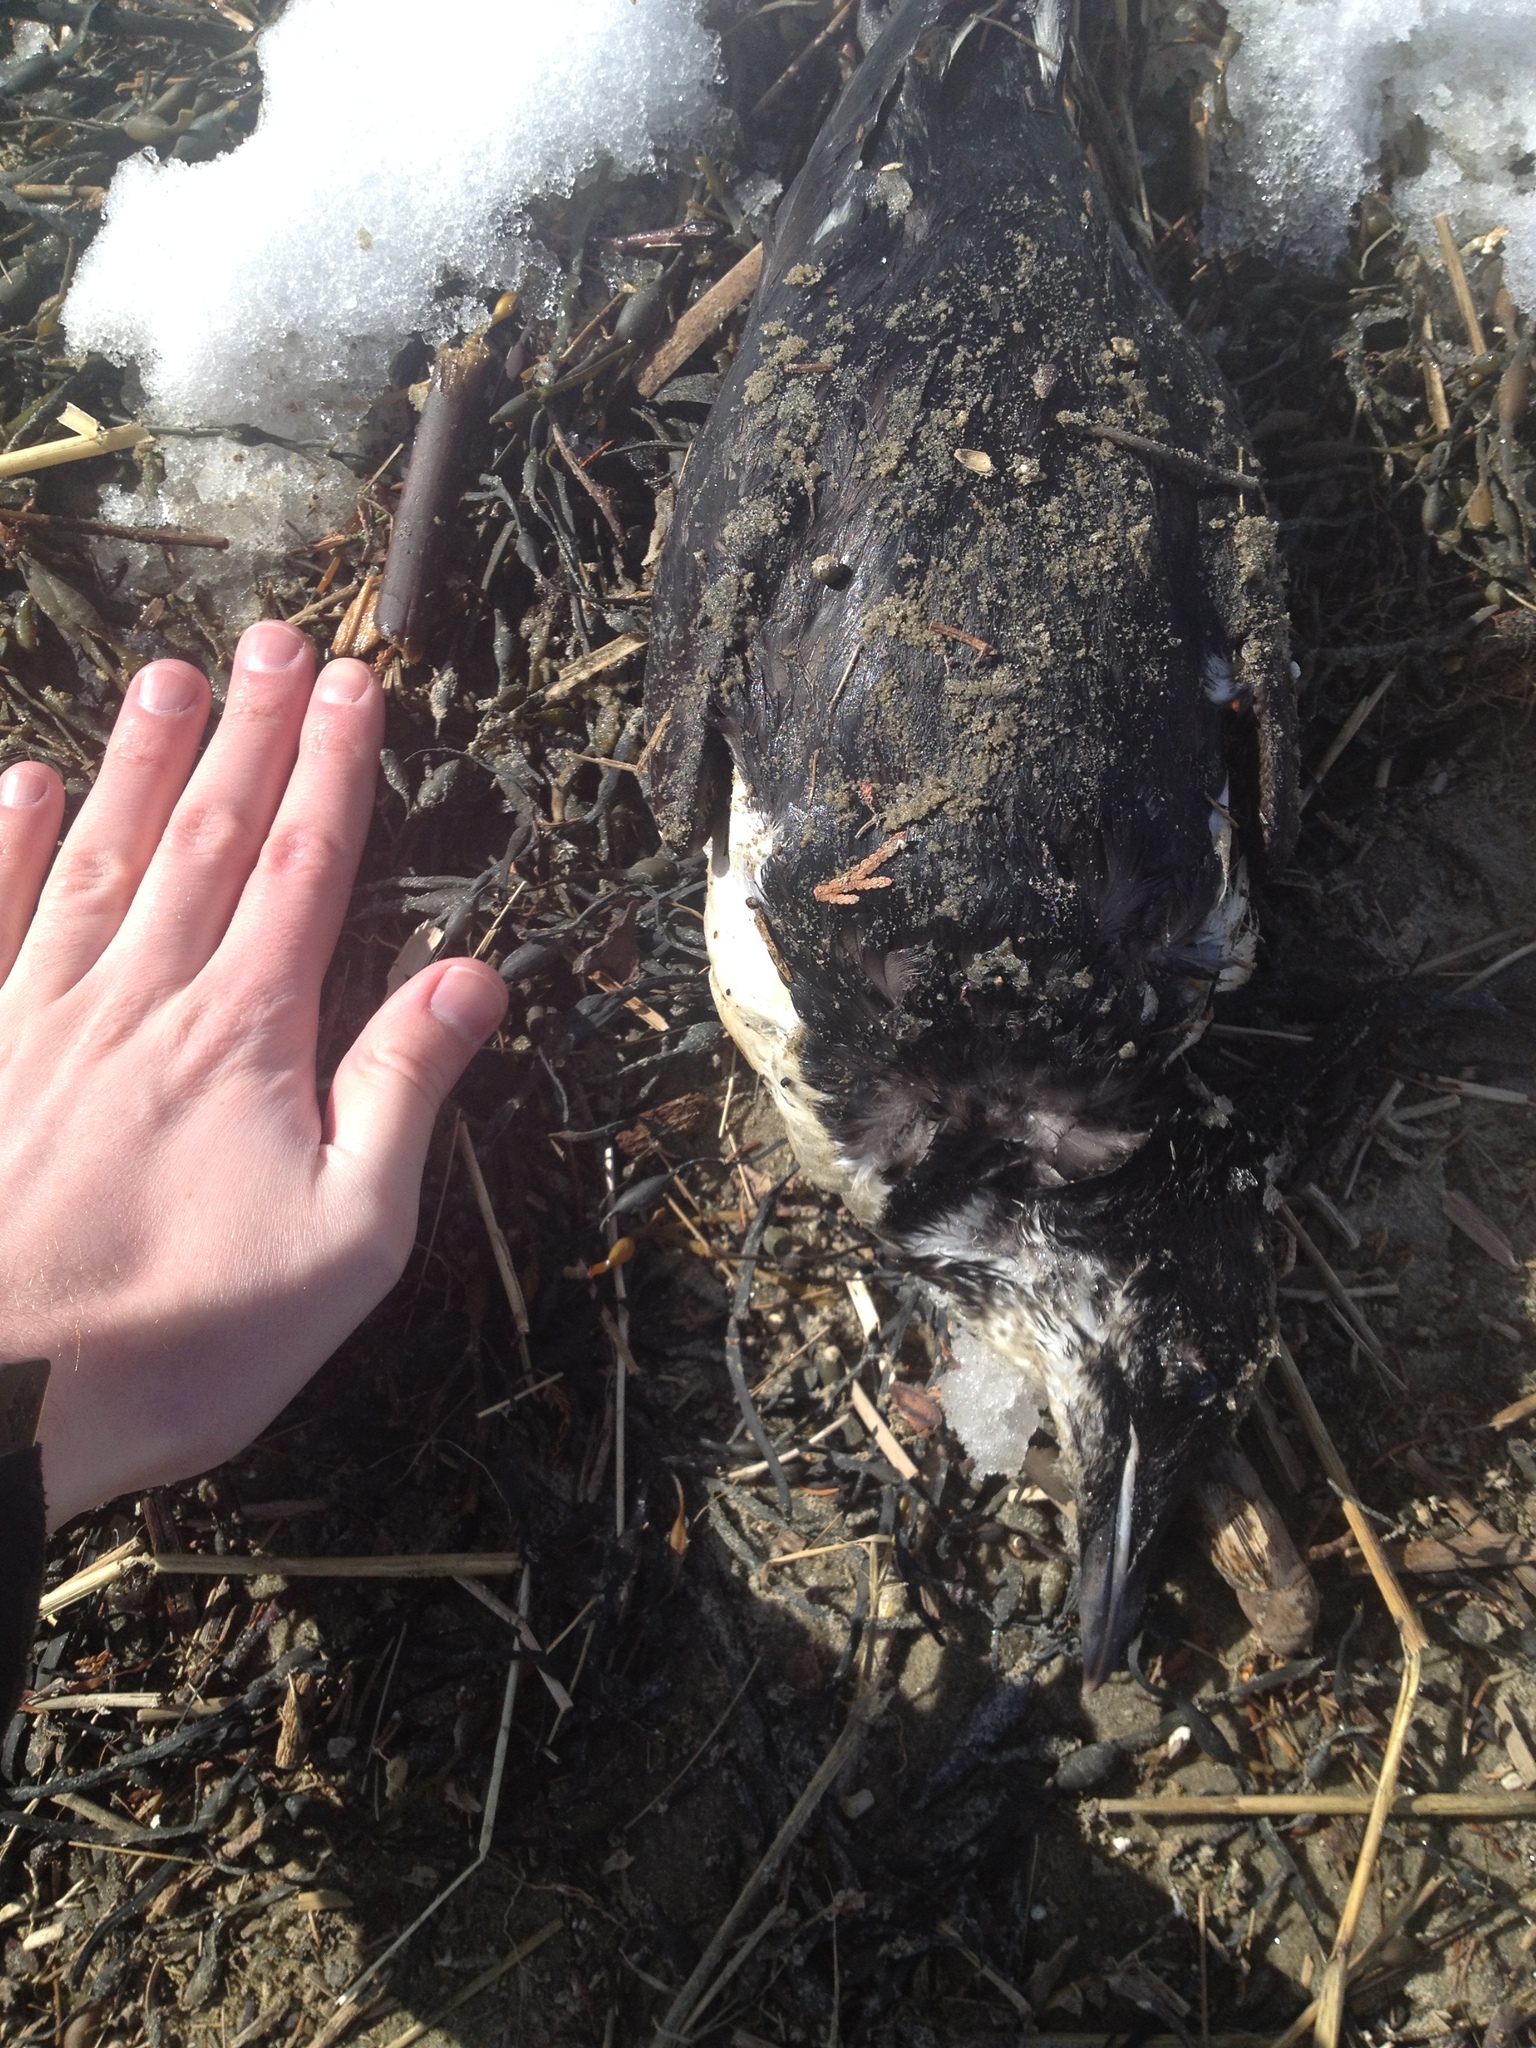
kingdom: Animalia
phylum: Chordata
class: Aves
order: Charadriiformes
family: Alcidae
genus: Uria
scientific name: Uria lomvia
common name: Thick-billed murre
